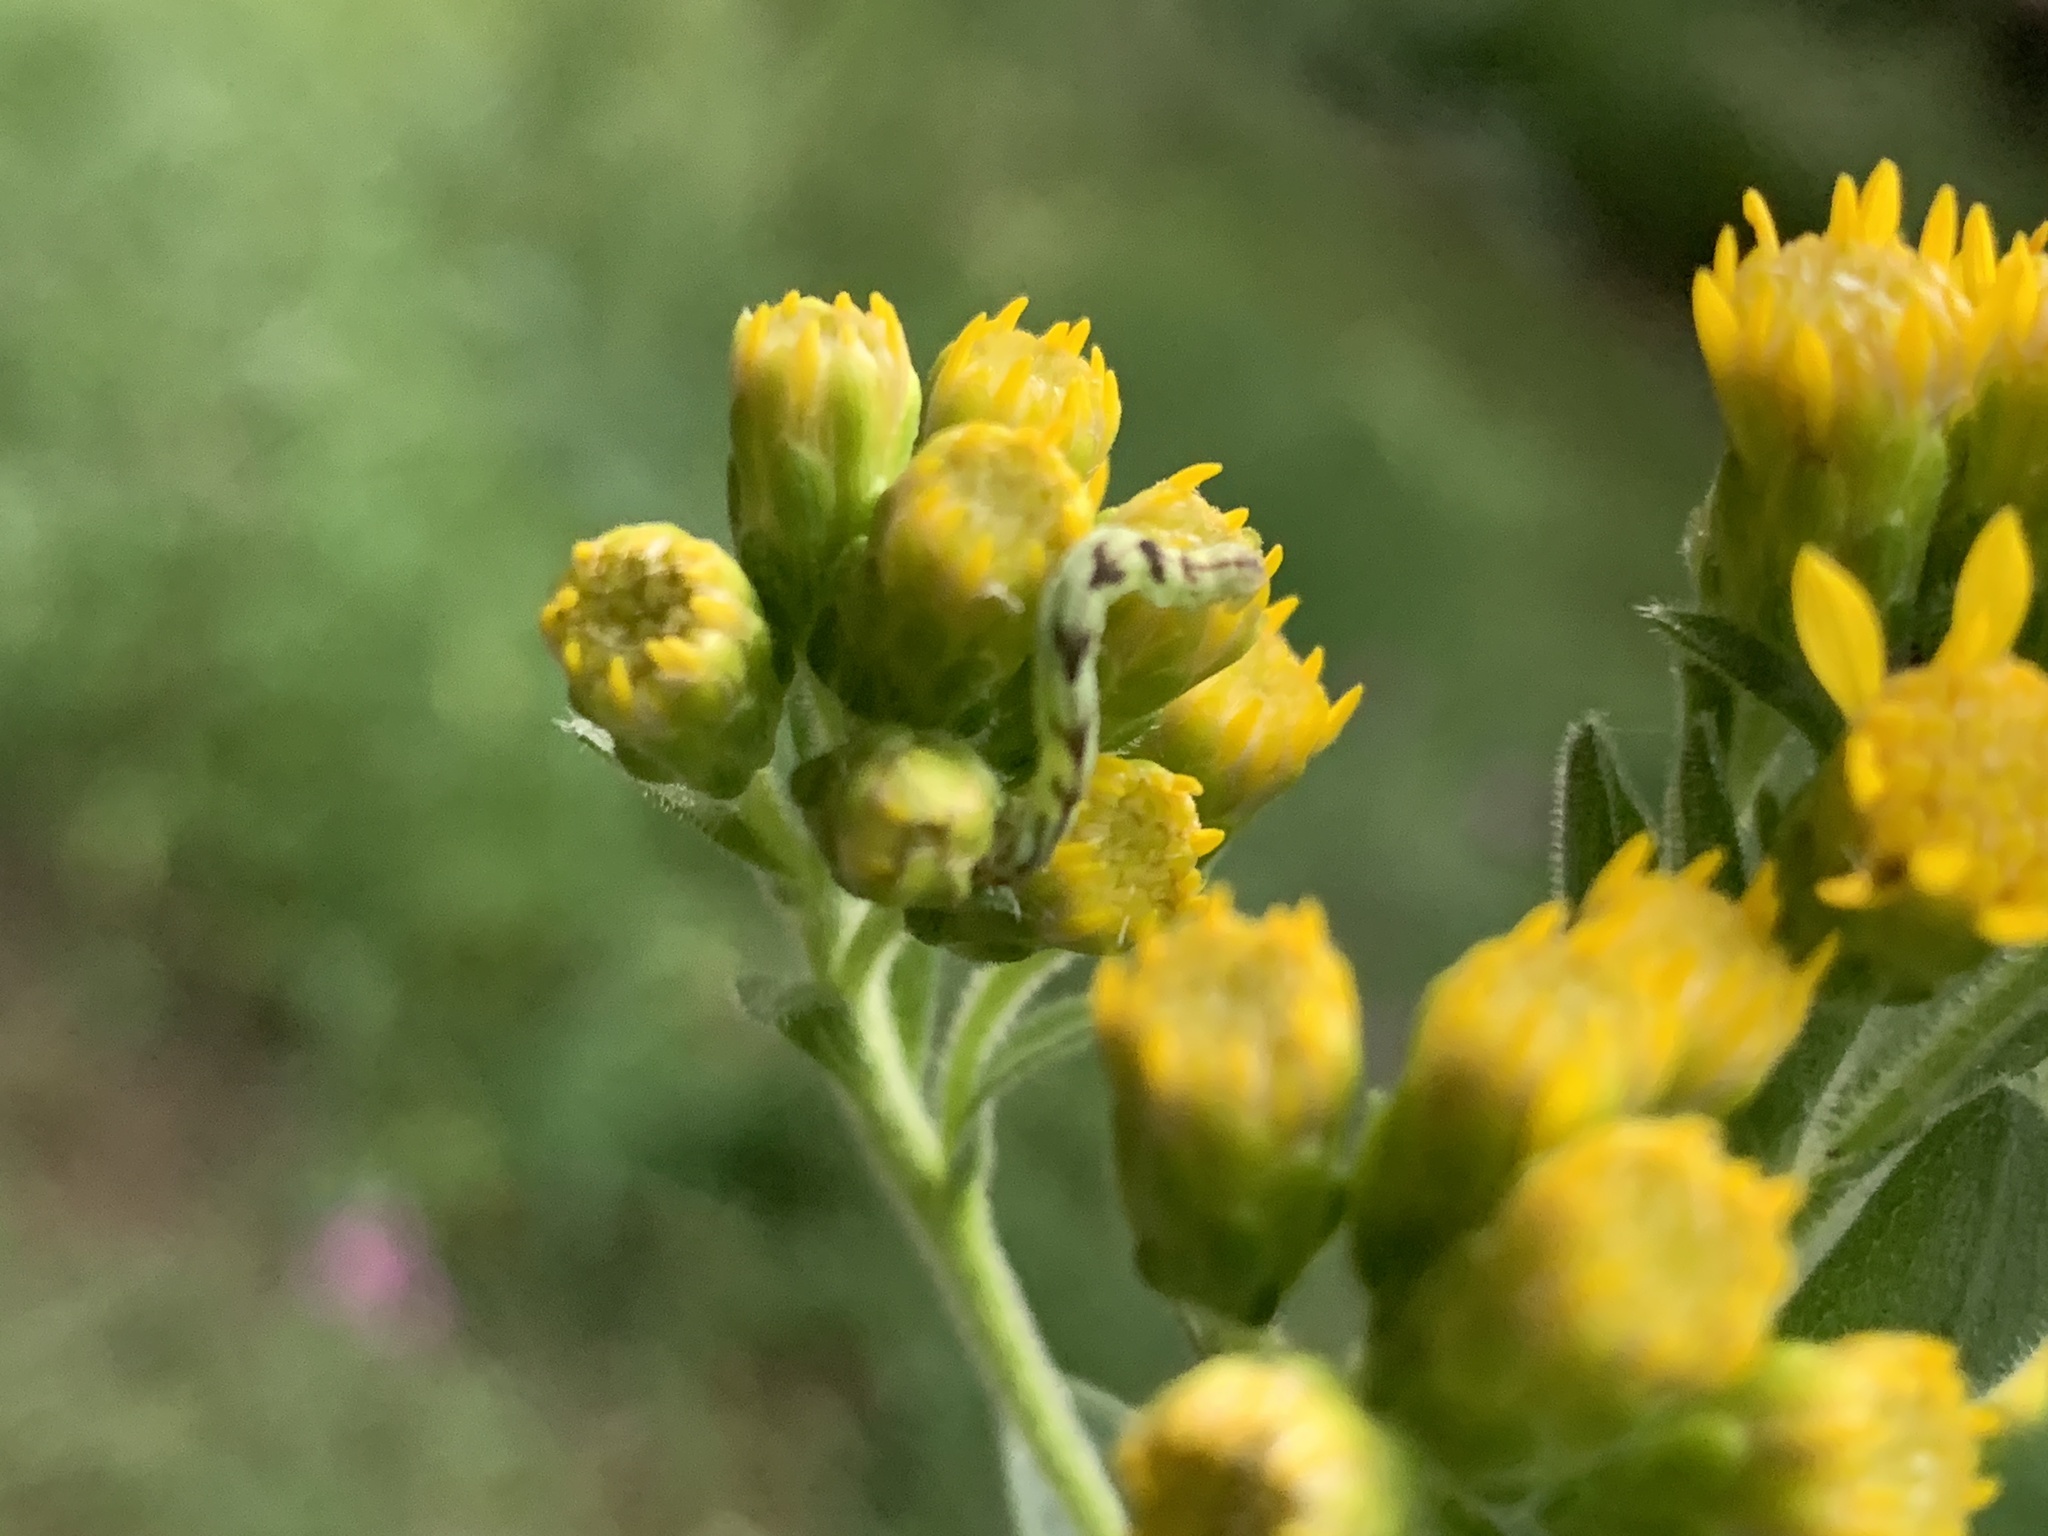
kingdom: Plantae
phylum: Tracheophyta
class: Magnoliopsida
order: Asterales
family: Asteraceae
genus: Solidago
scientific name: Solidago rigida
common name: Rigid goldenrod
